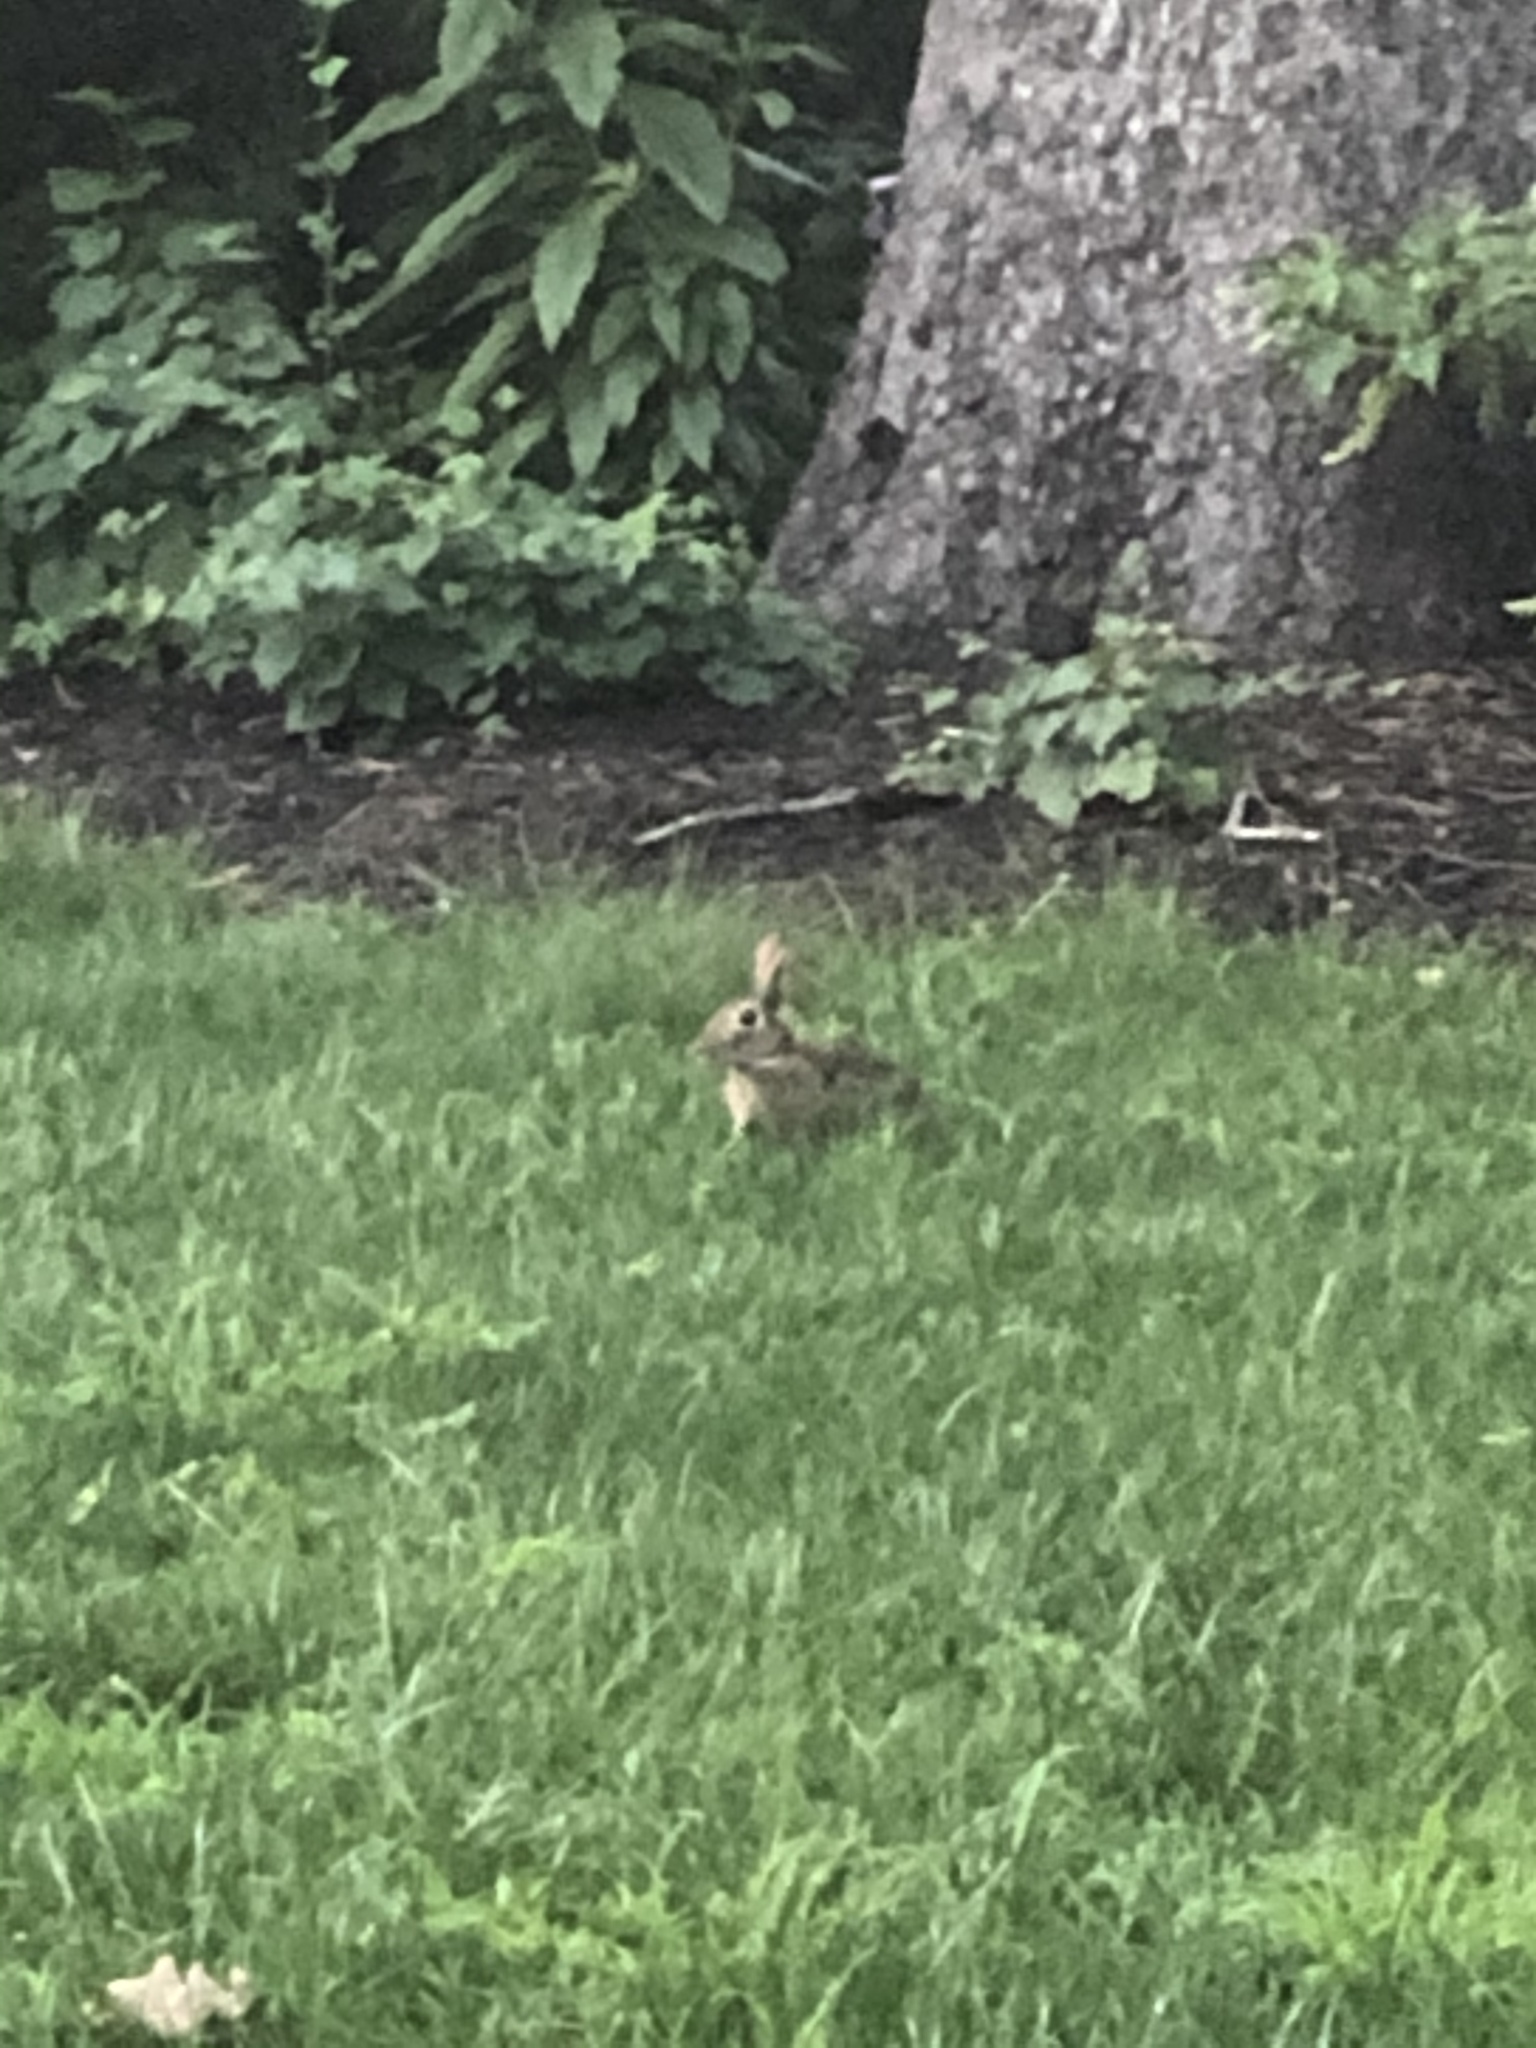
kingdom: Animalia
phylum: Chordata
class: Mammalia
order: Lagomorpha
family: Leporidae
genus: Sylvilagus
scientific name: Sylvilagus floridanus
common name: Eastern cottontail
